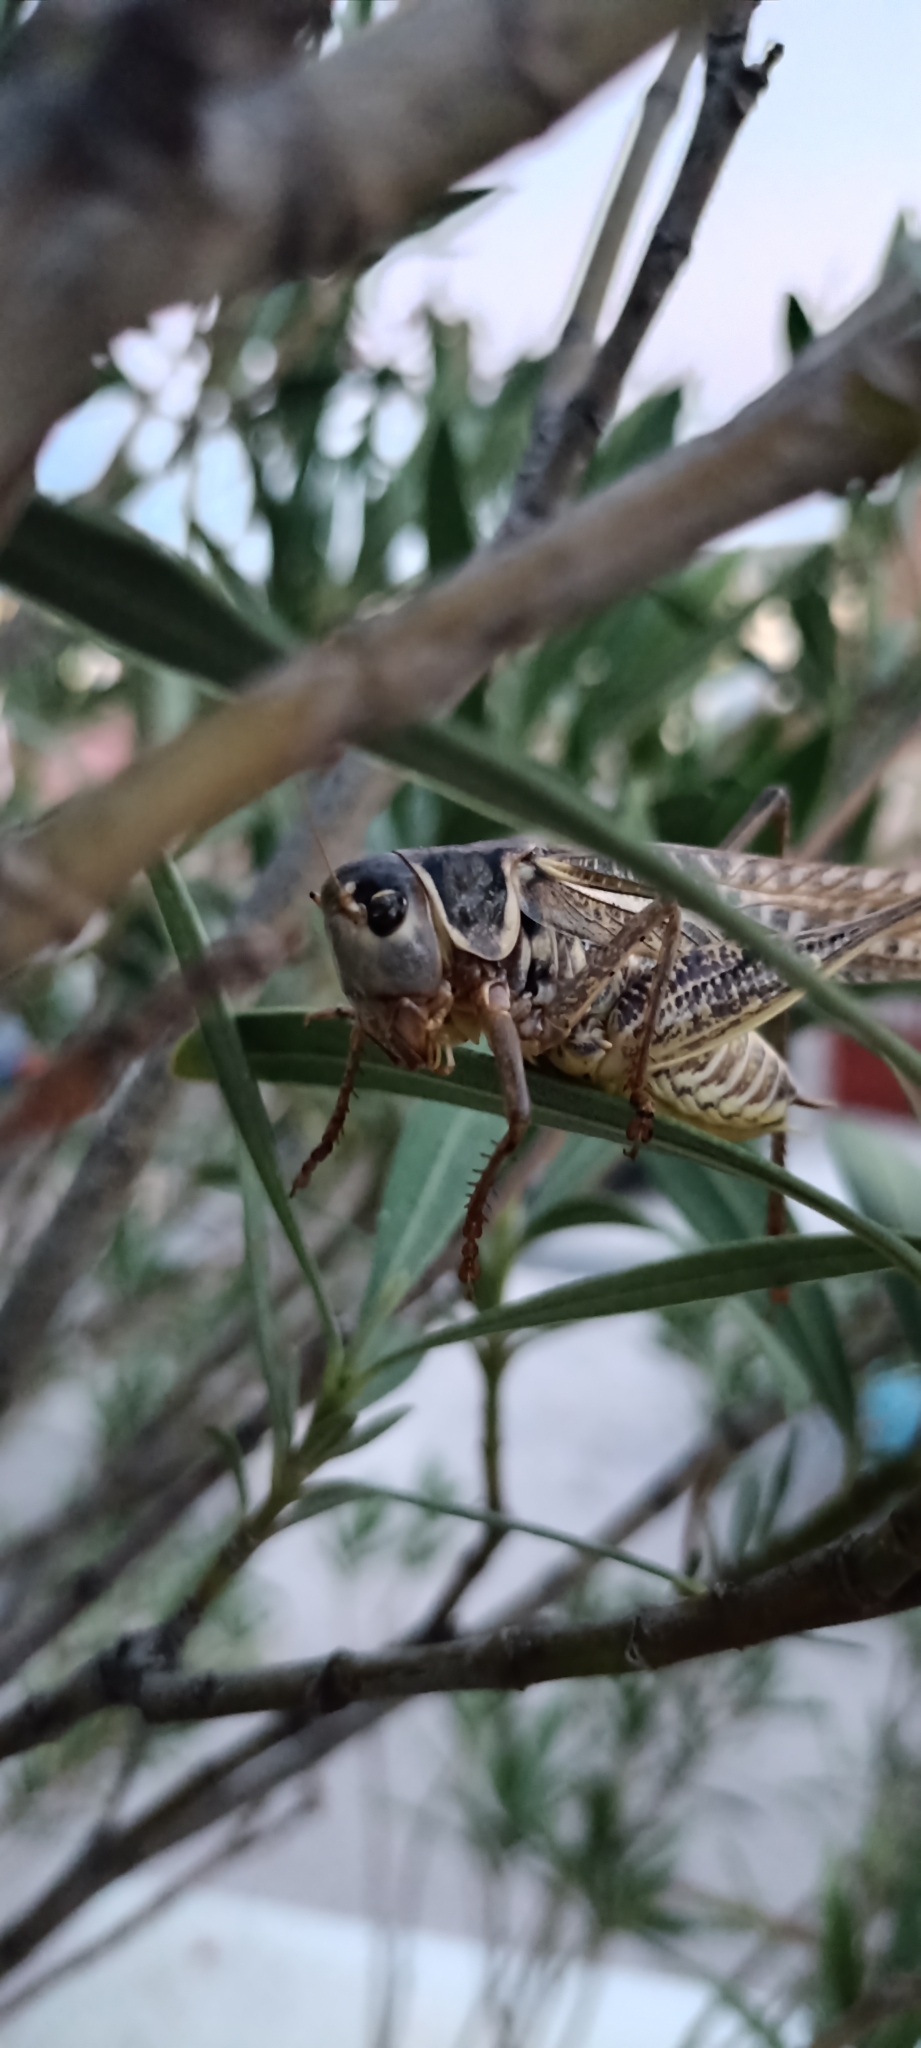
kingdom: Animalia
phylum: Arthropoda
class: Insecta
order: Orthoptera
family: Tettigoniidae
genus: Decticus
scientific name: Decticus albifrons
